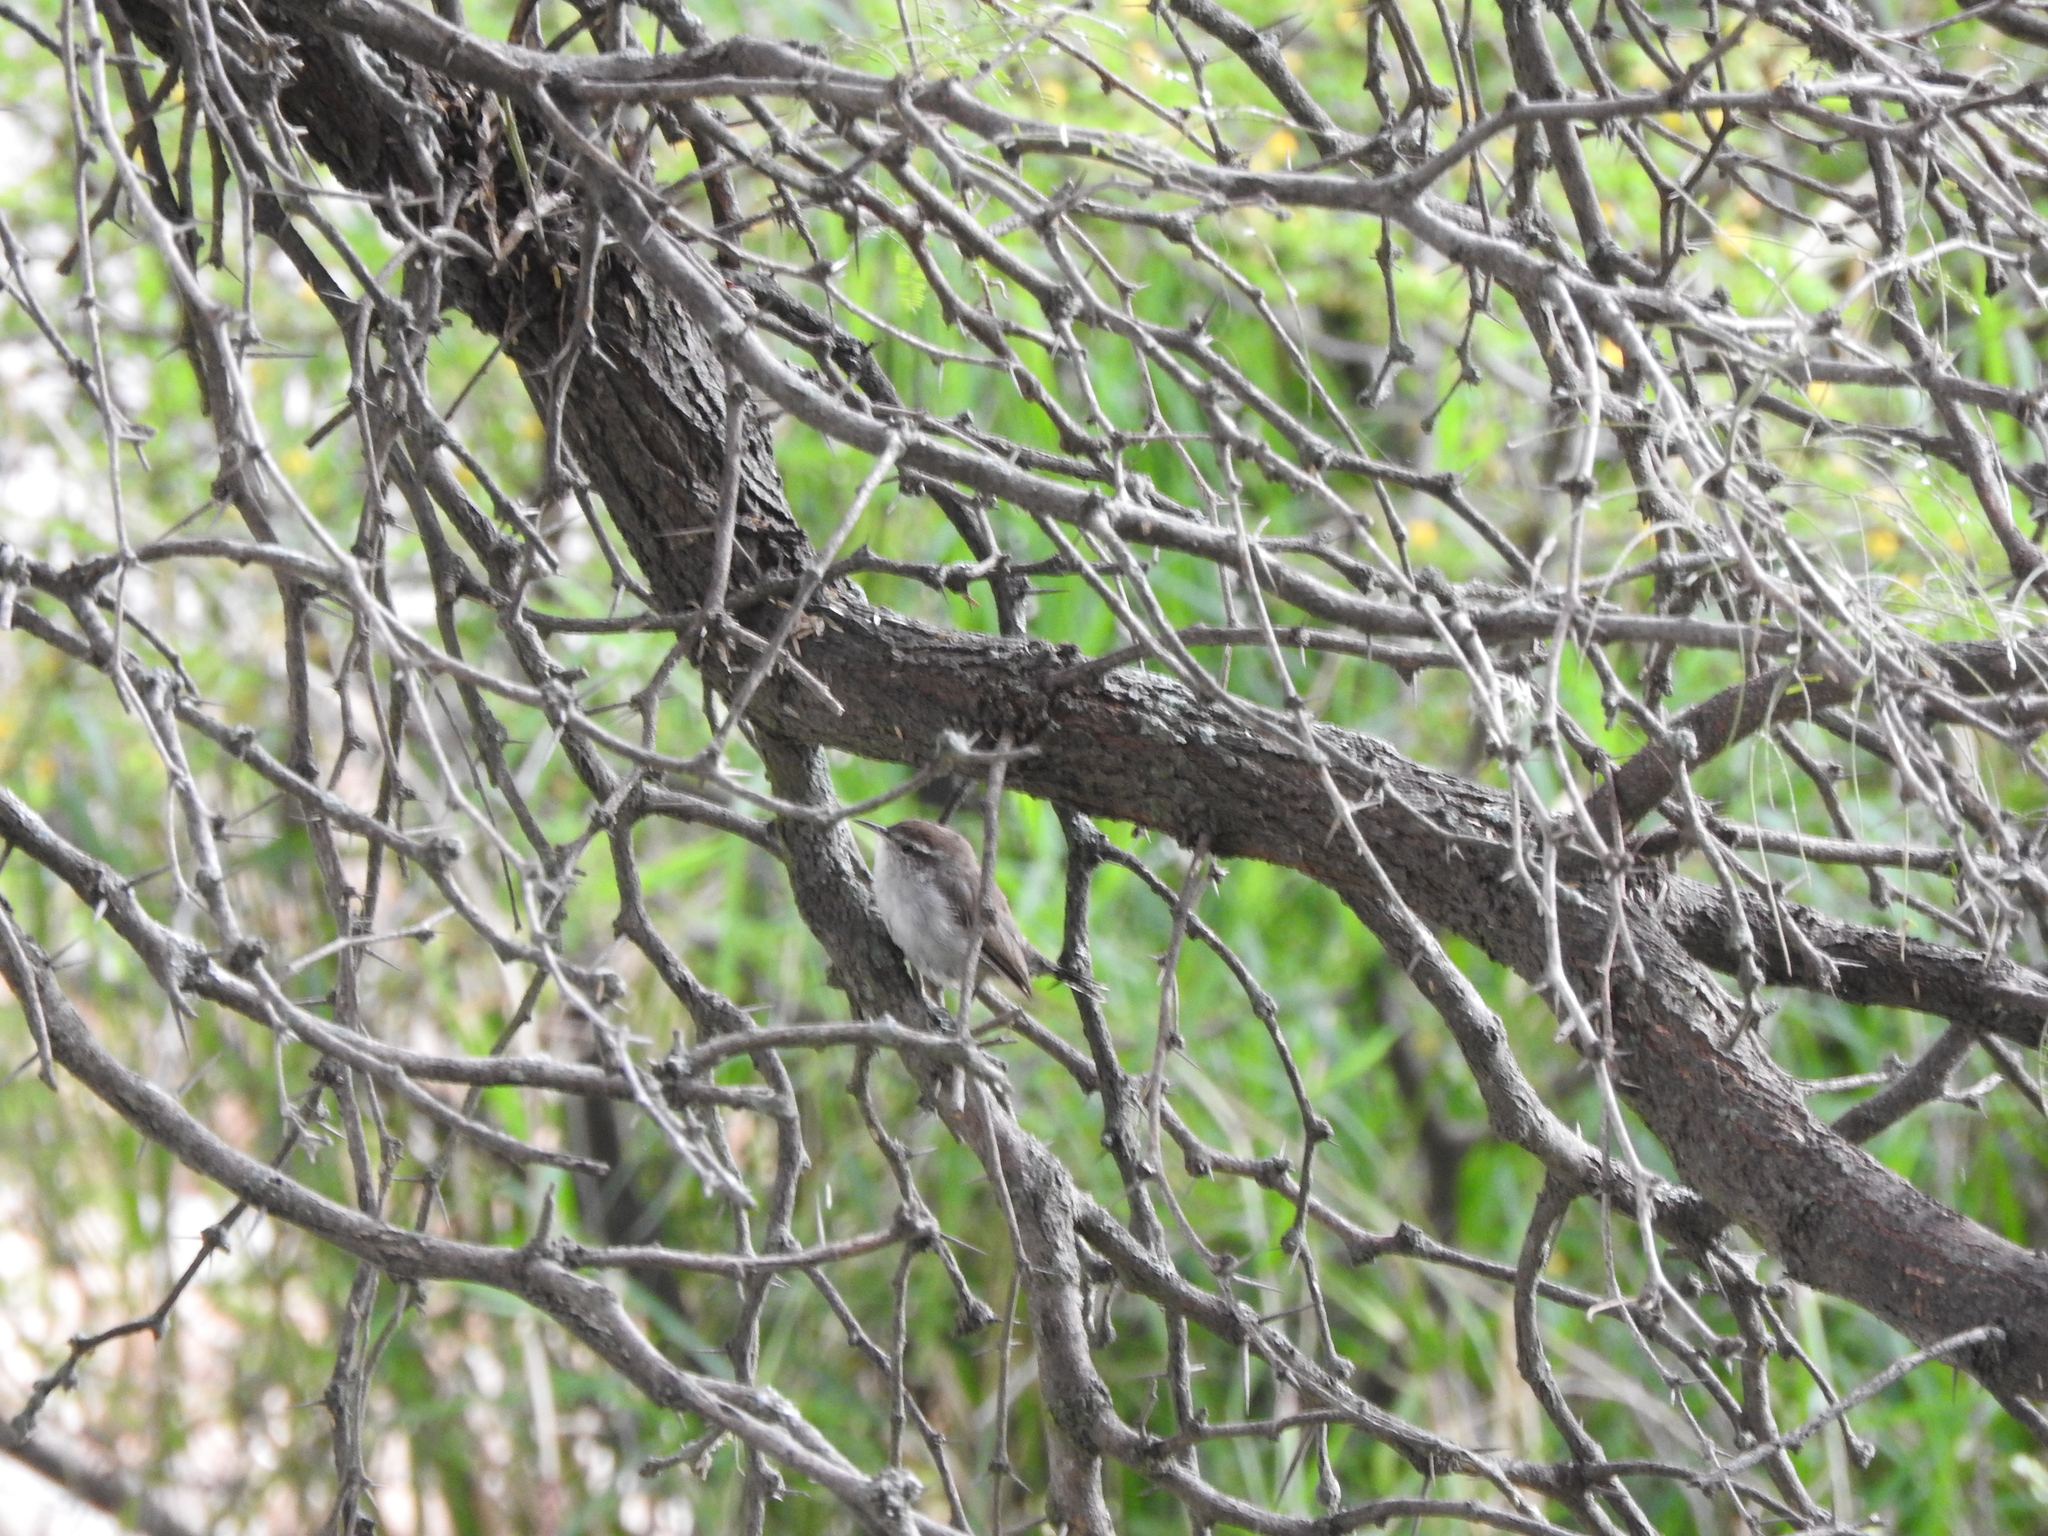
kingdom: Animalia
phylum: Chordata
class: Aves
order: Passeriformes
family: Troglodytidae
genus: Thryomanes
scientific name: Thryomanes bewickii
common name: Bewick's wren
